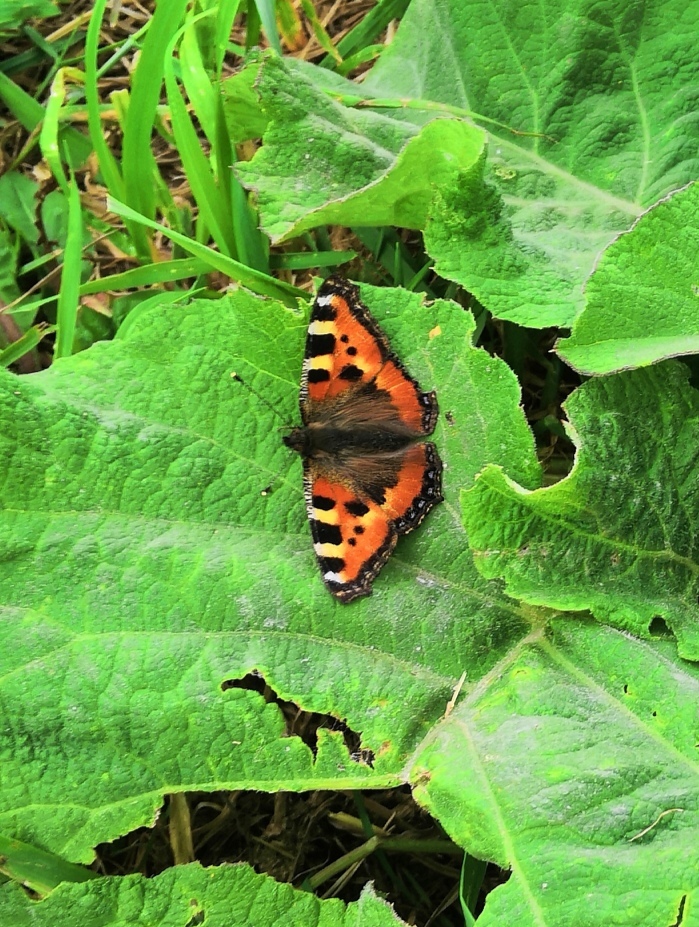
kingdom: Animalia
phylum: Arthropoda
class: Insecta
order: Lepidoptera
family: Nymphalidae
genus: Aglais
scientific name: Aglais urticae
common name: Small tortoiseshell
